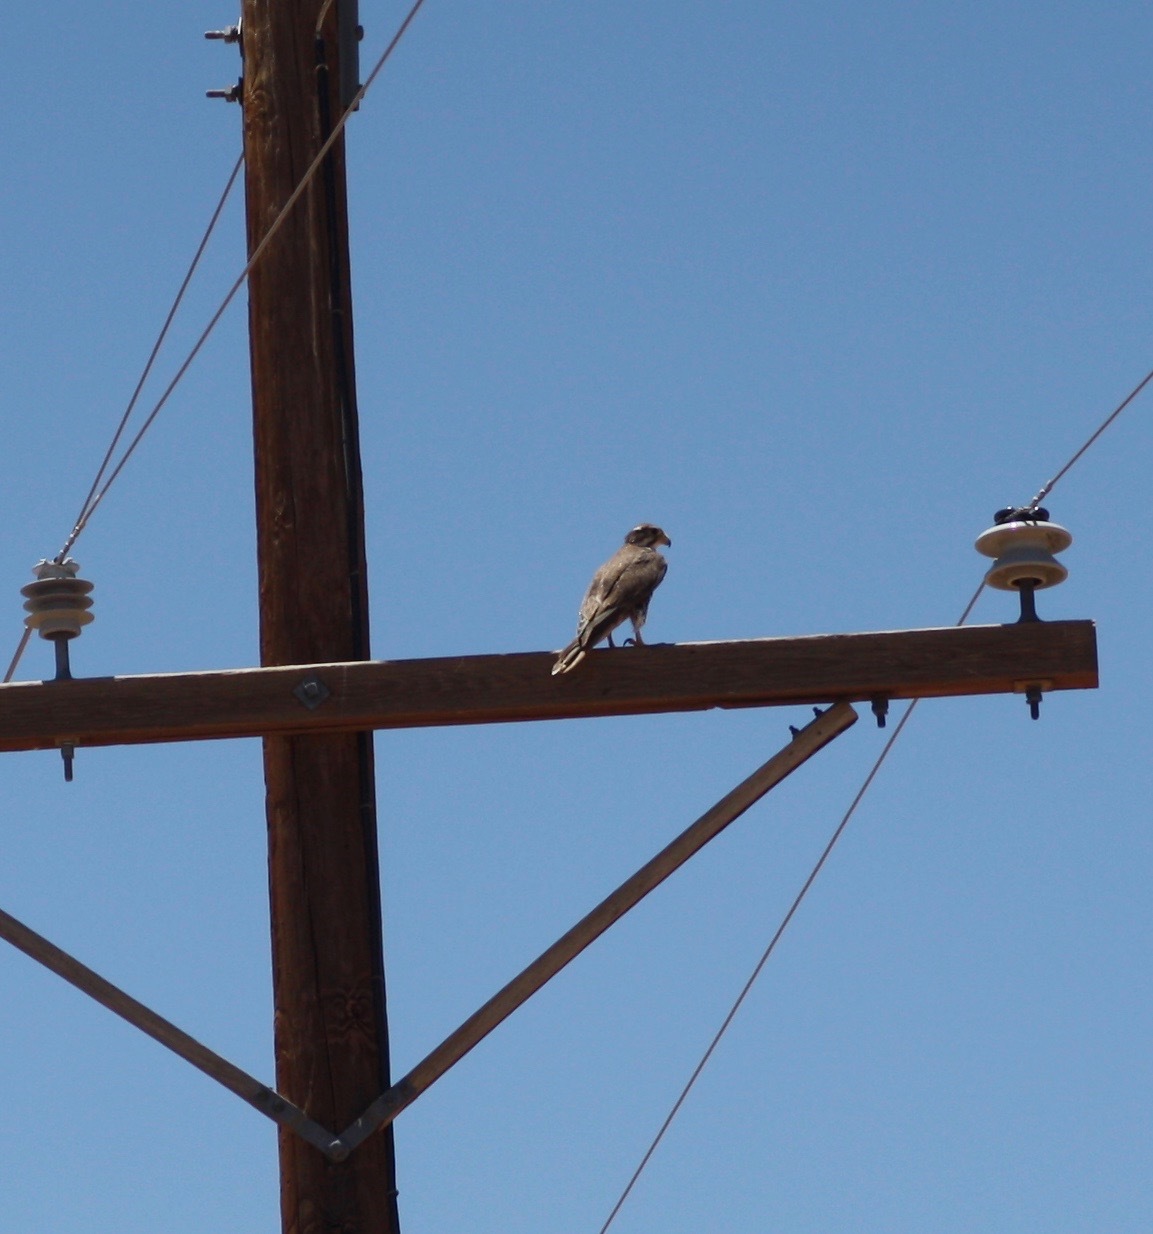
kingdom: Animalia
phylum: Chordata
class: Aves
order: Falconiformes
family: Falconidae
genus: Falco
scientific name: Falco mexicanus
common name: Prairie falcon
